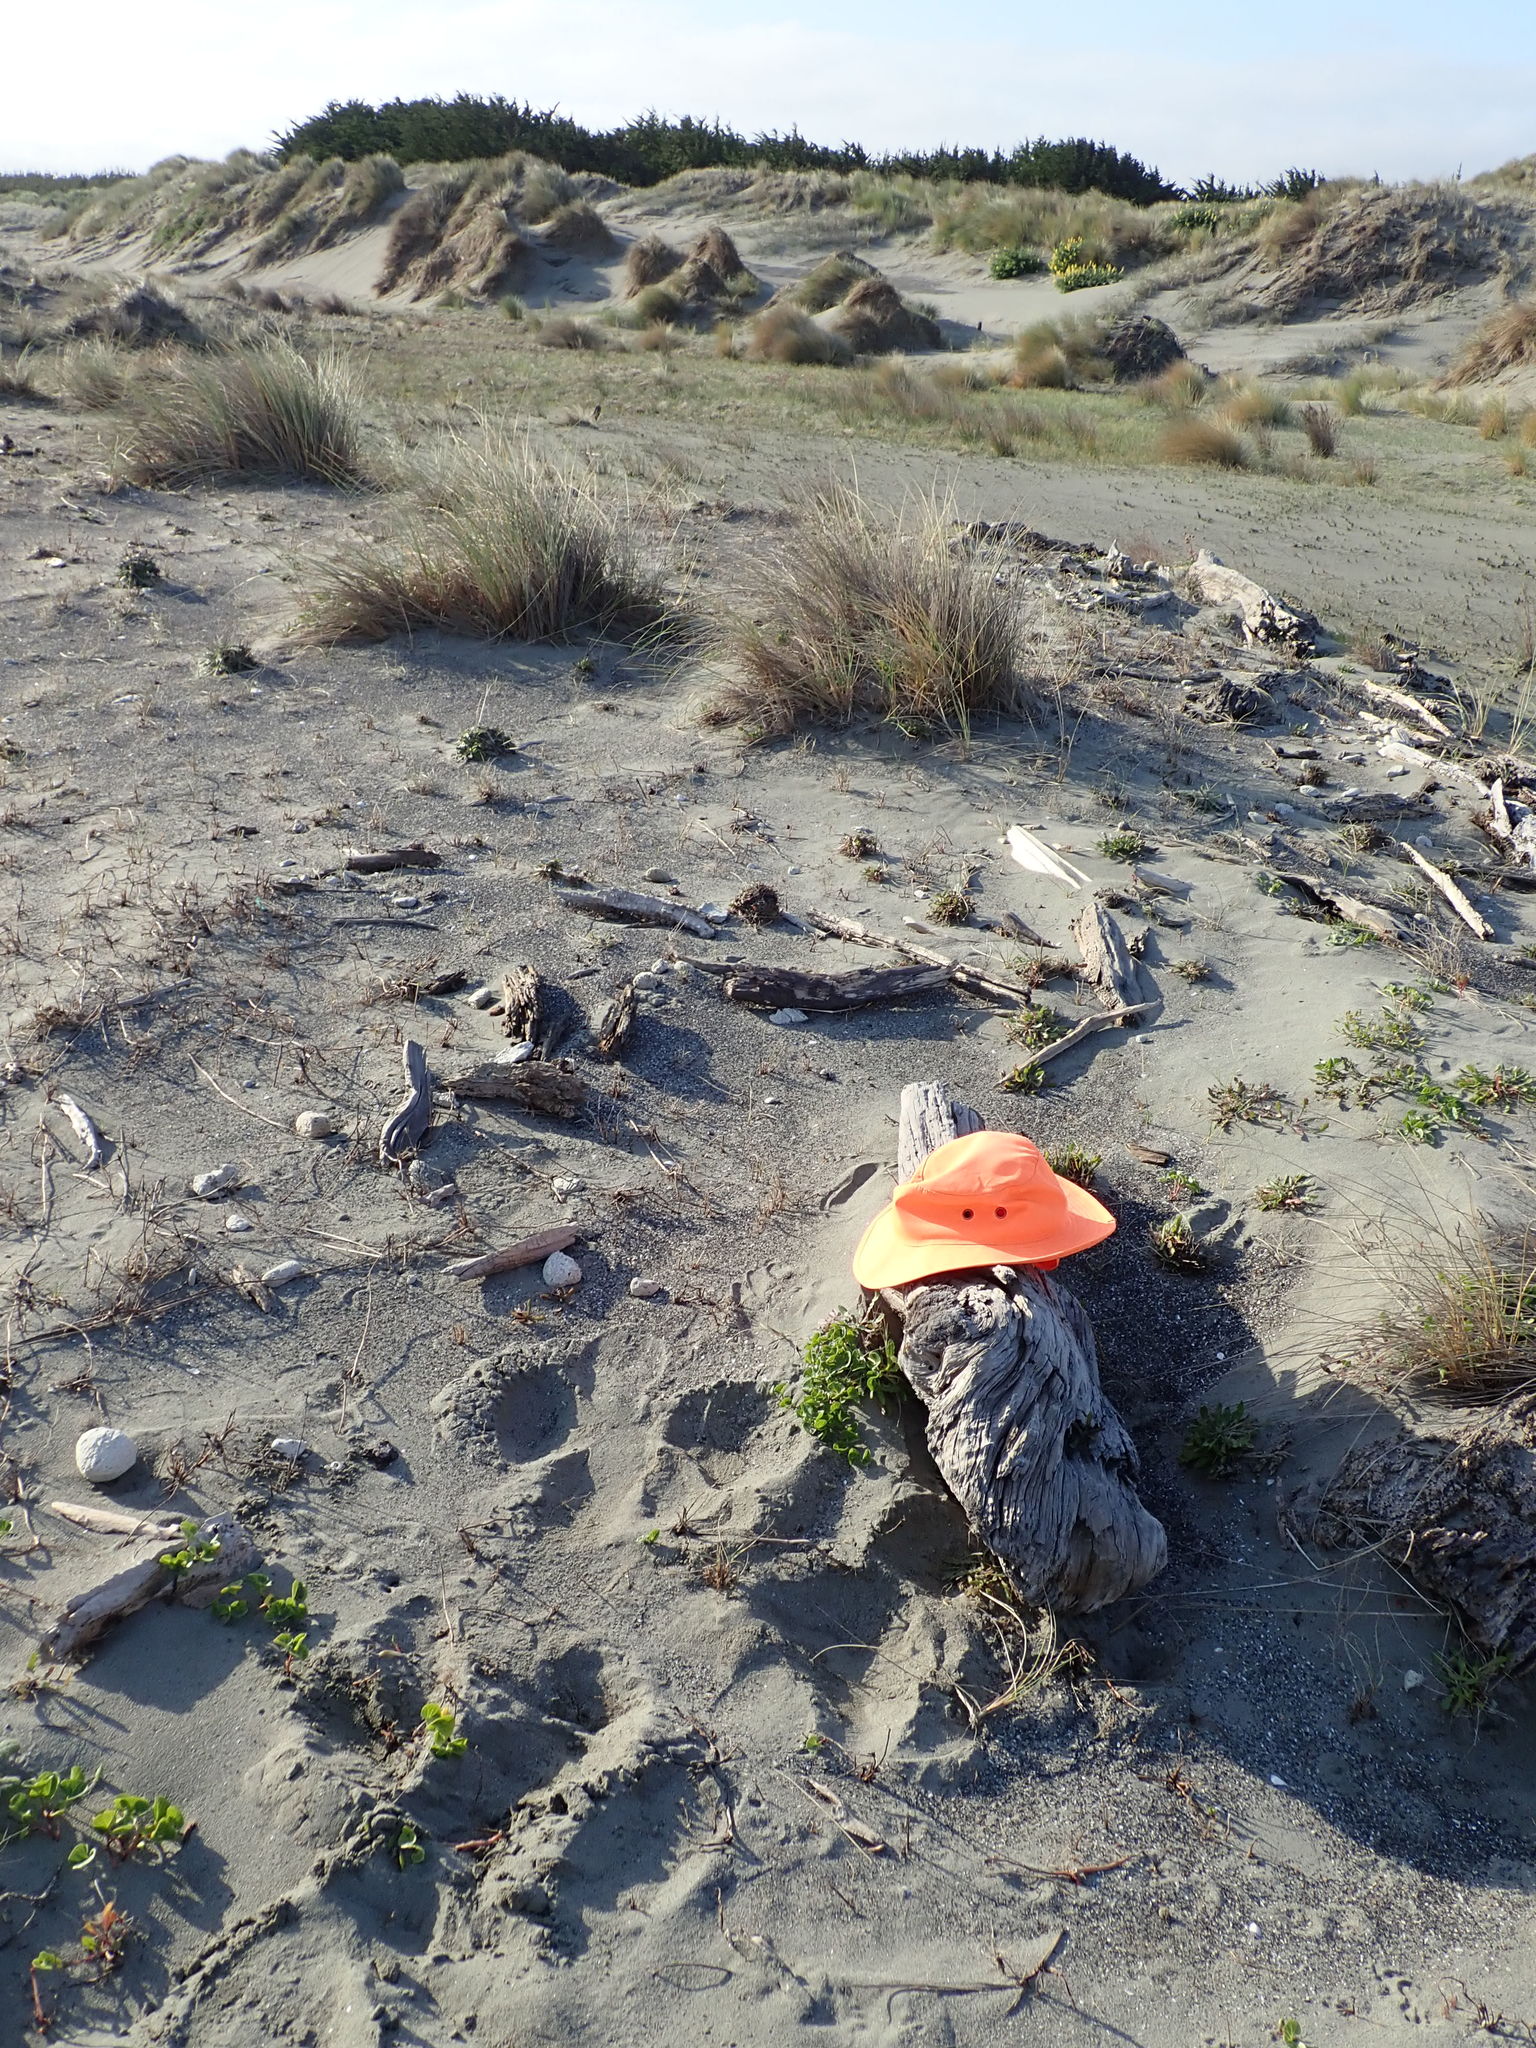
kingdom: Animalia
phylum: Arthropoda
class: Insecta
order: Dermaptera
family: Anisolabididae
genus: Anisolabis
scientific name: Anisolabis littorea
